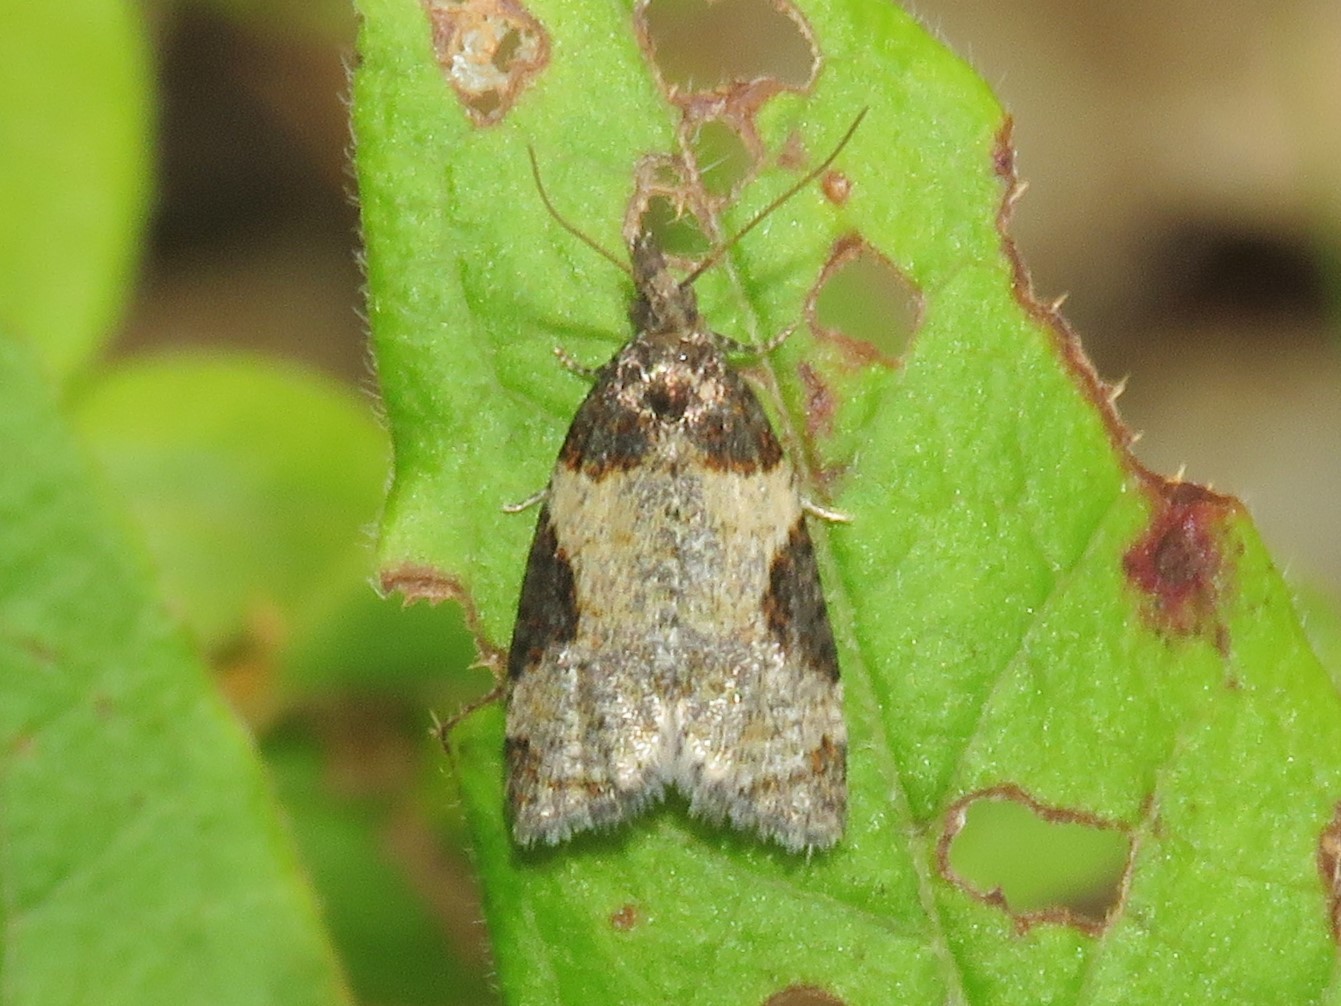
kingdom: Animalia
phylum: Arthropoda
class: Insecta
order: Lepidoptera
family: Tortricidae
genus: Anopina
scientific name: Anopina ednana
